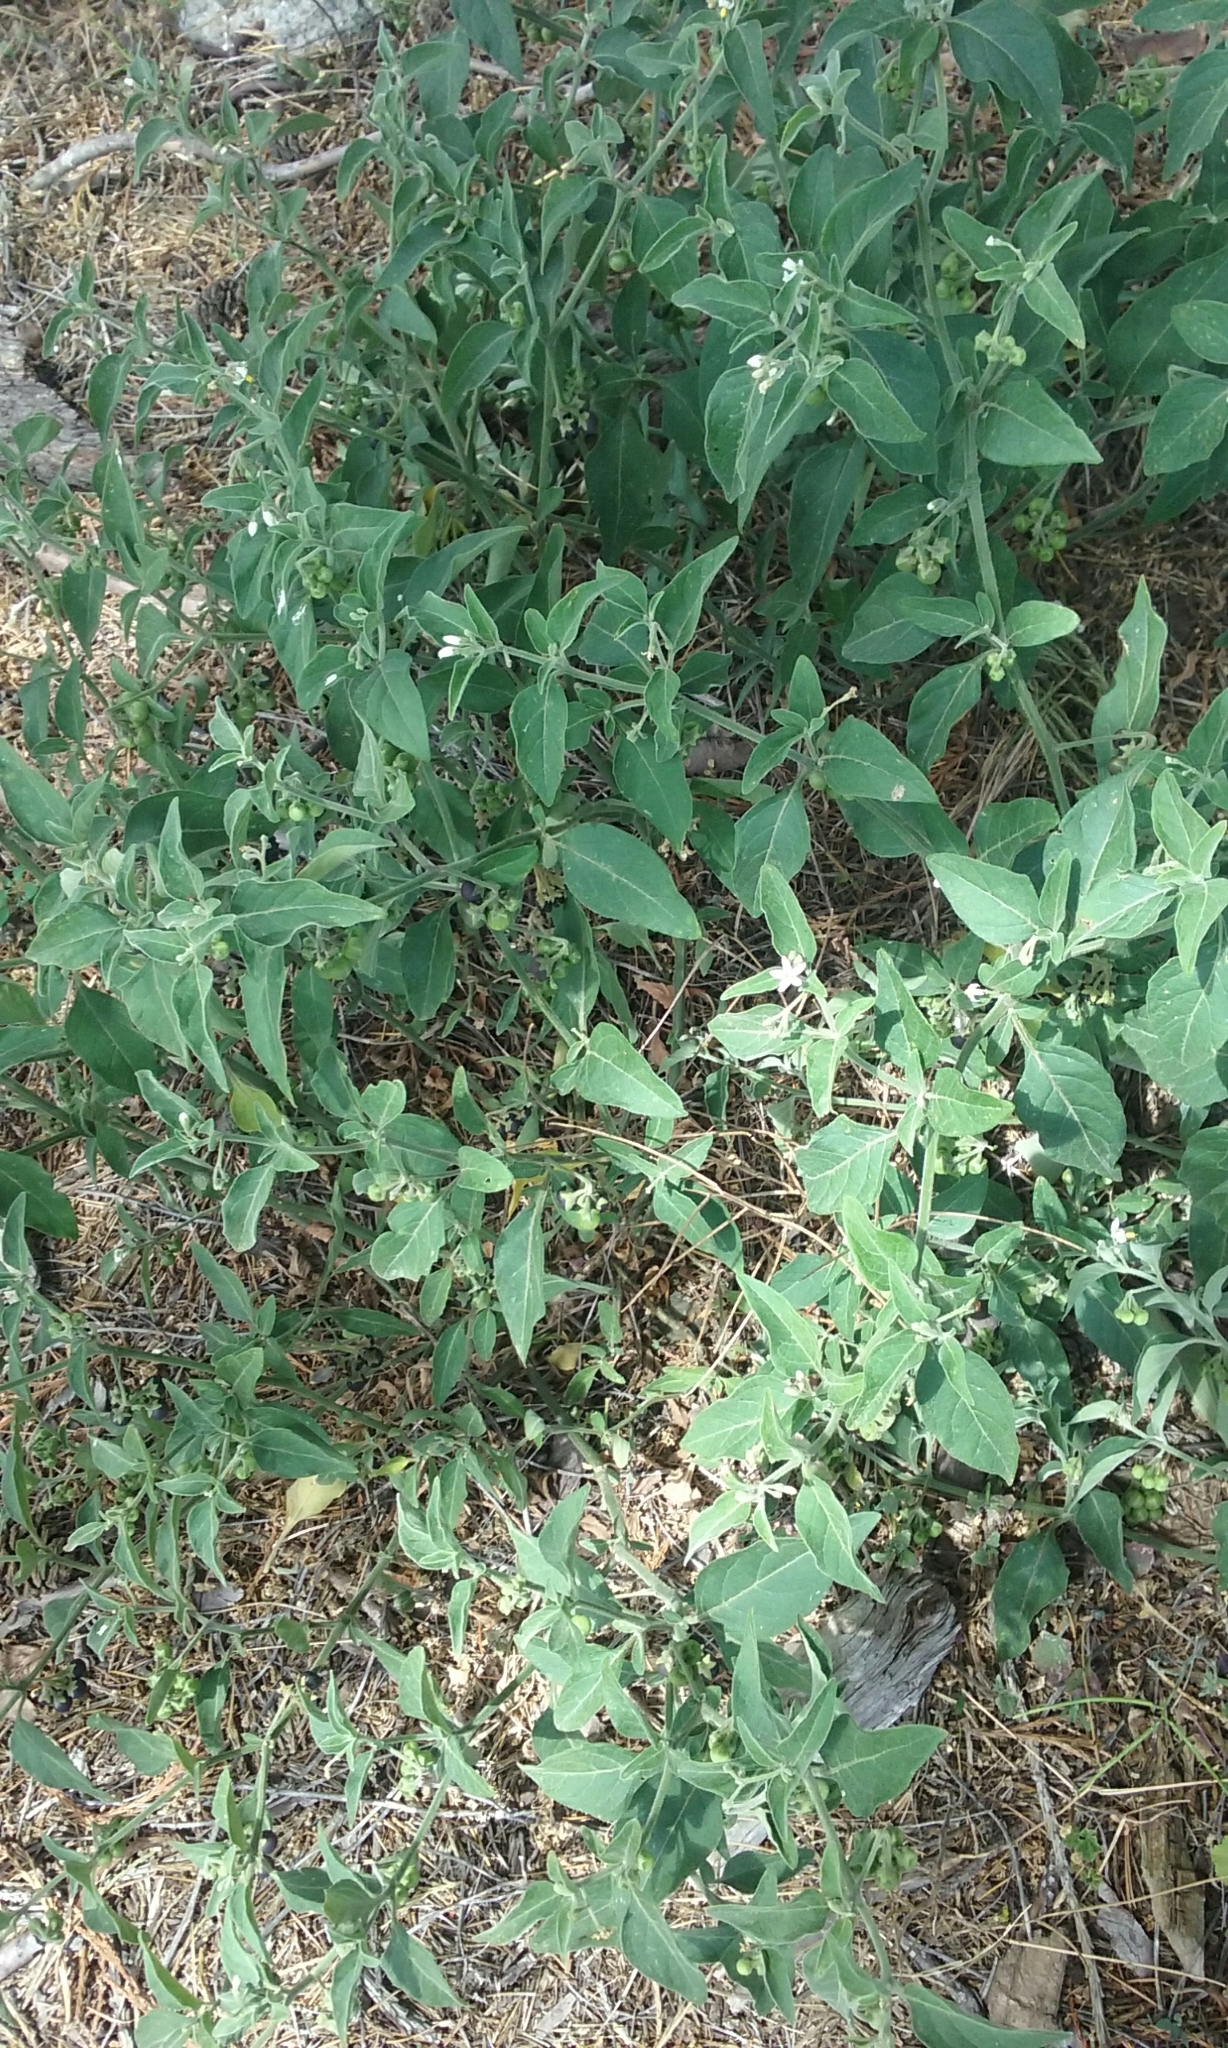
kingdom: Plantae
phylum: Tracheophyta
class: Magnoliopsida
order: Solanales
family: Solanaceae
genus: Solanum
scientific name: Solanum chenopodioides
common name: Tall nightshade
